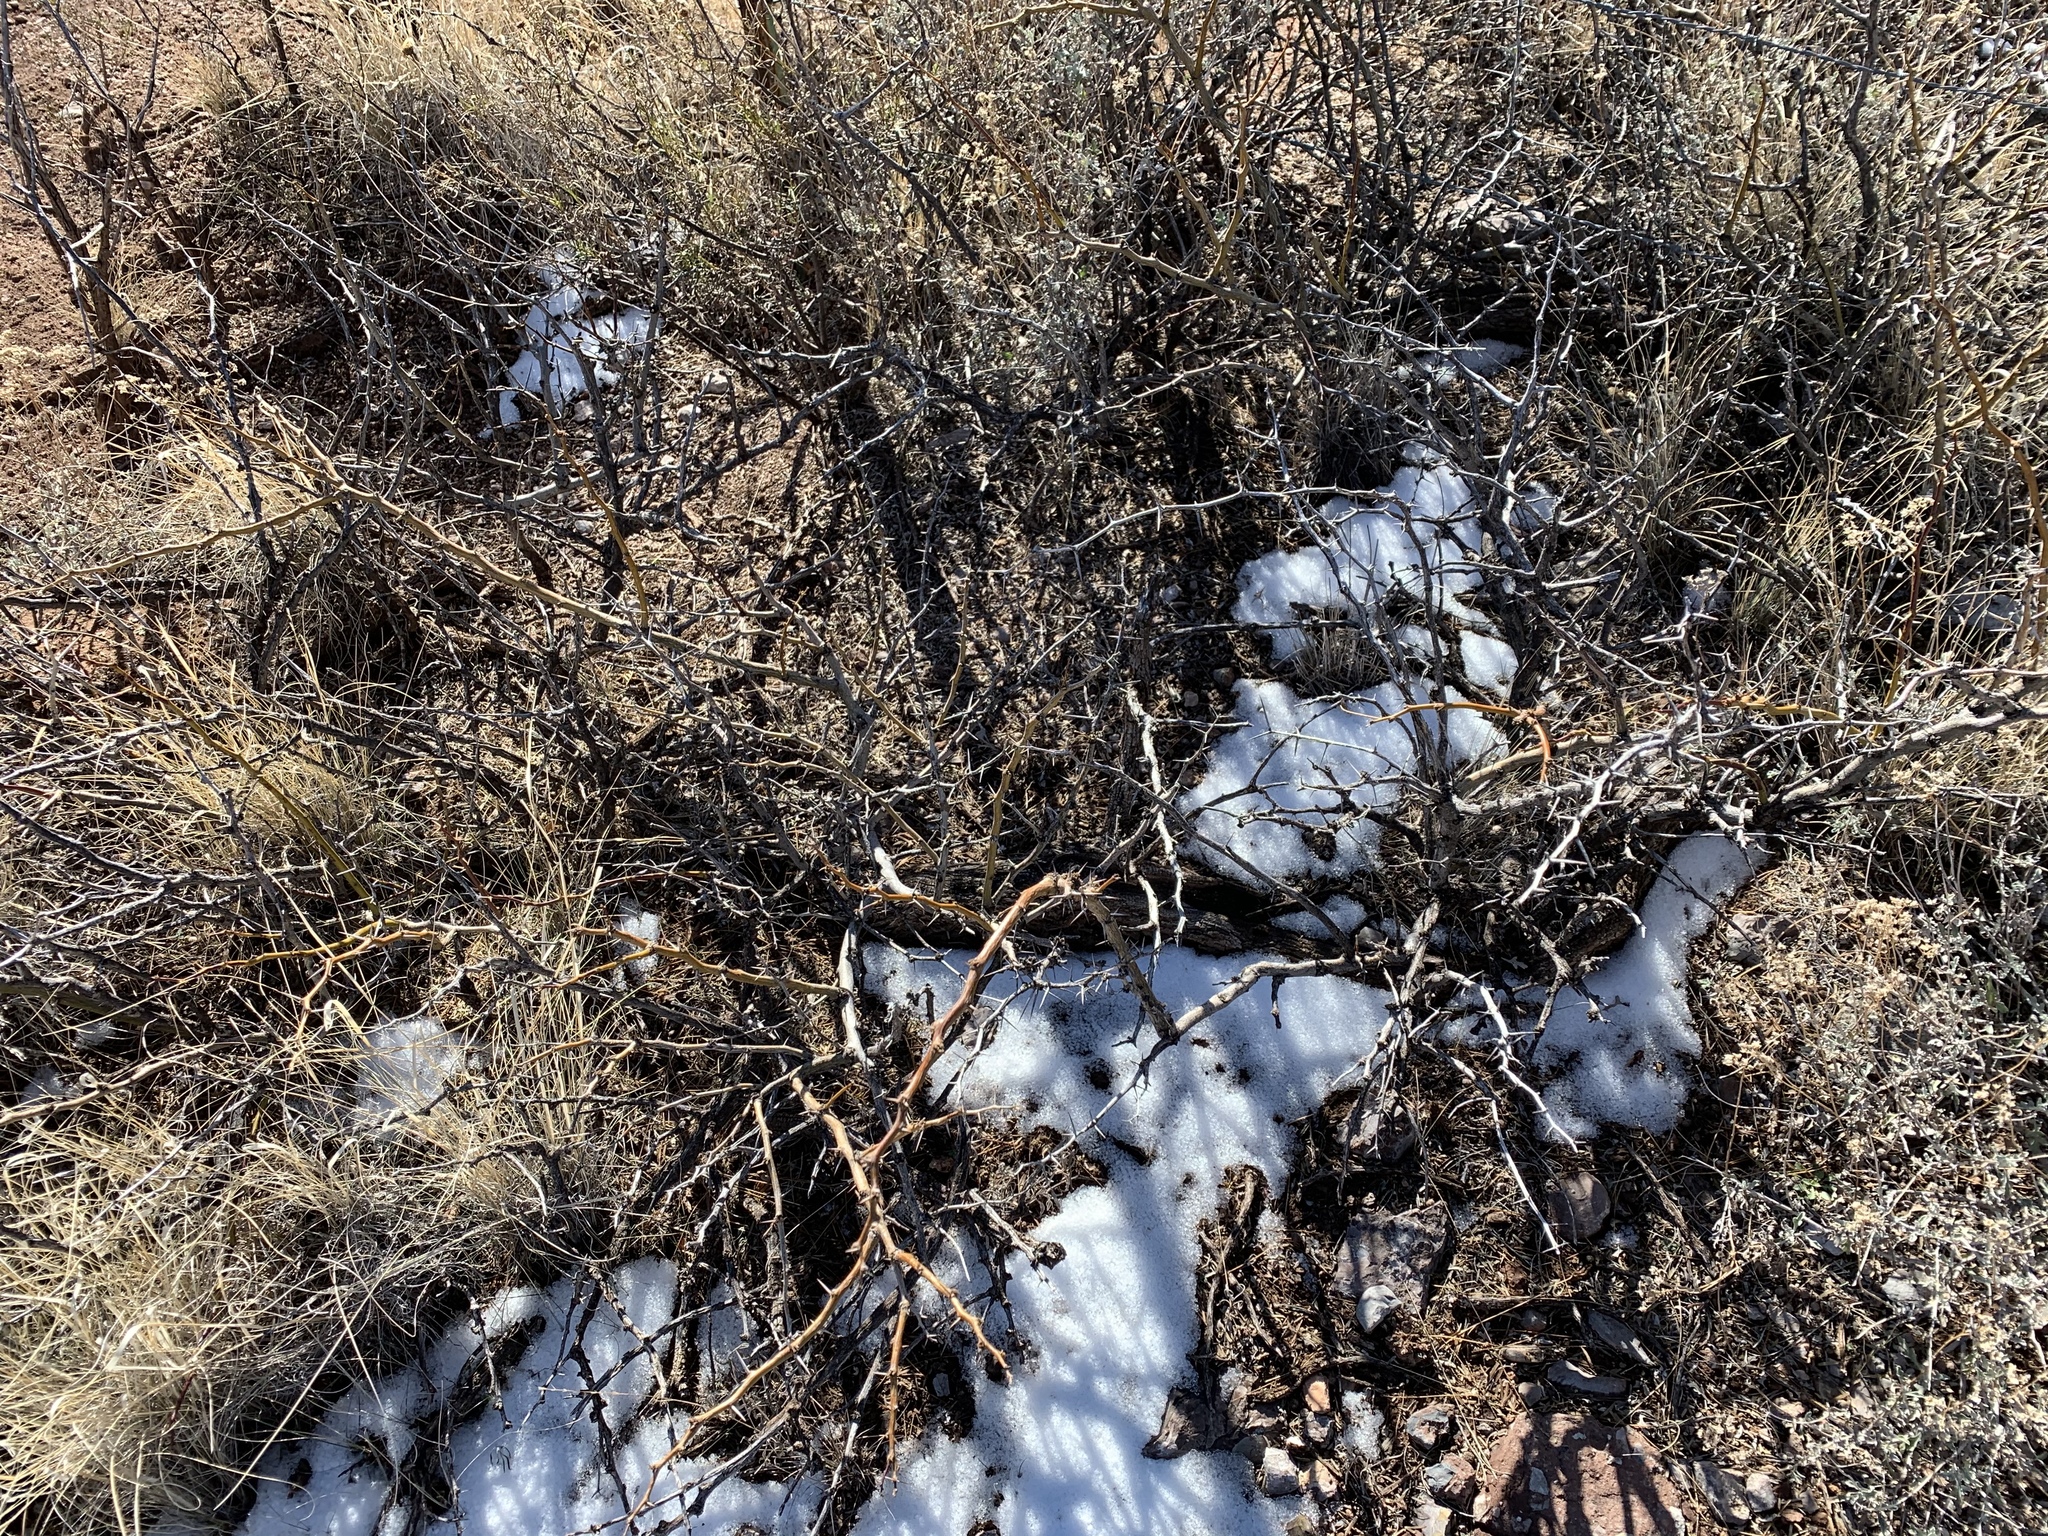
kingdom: Plantae
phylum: Tracheophyta
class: Magnoliopsida
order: Fabales
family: Fabaceae
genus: Prosopis
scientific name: Prosopis glandulosa
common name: Honey mesquite
